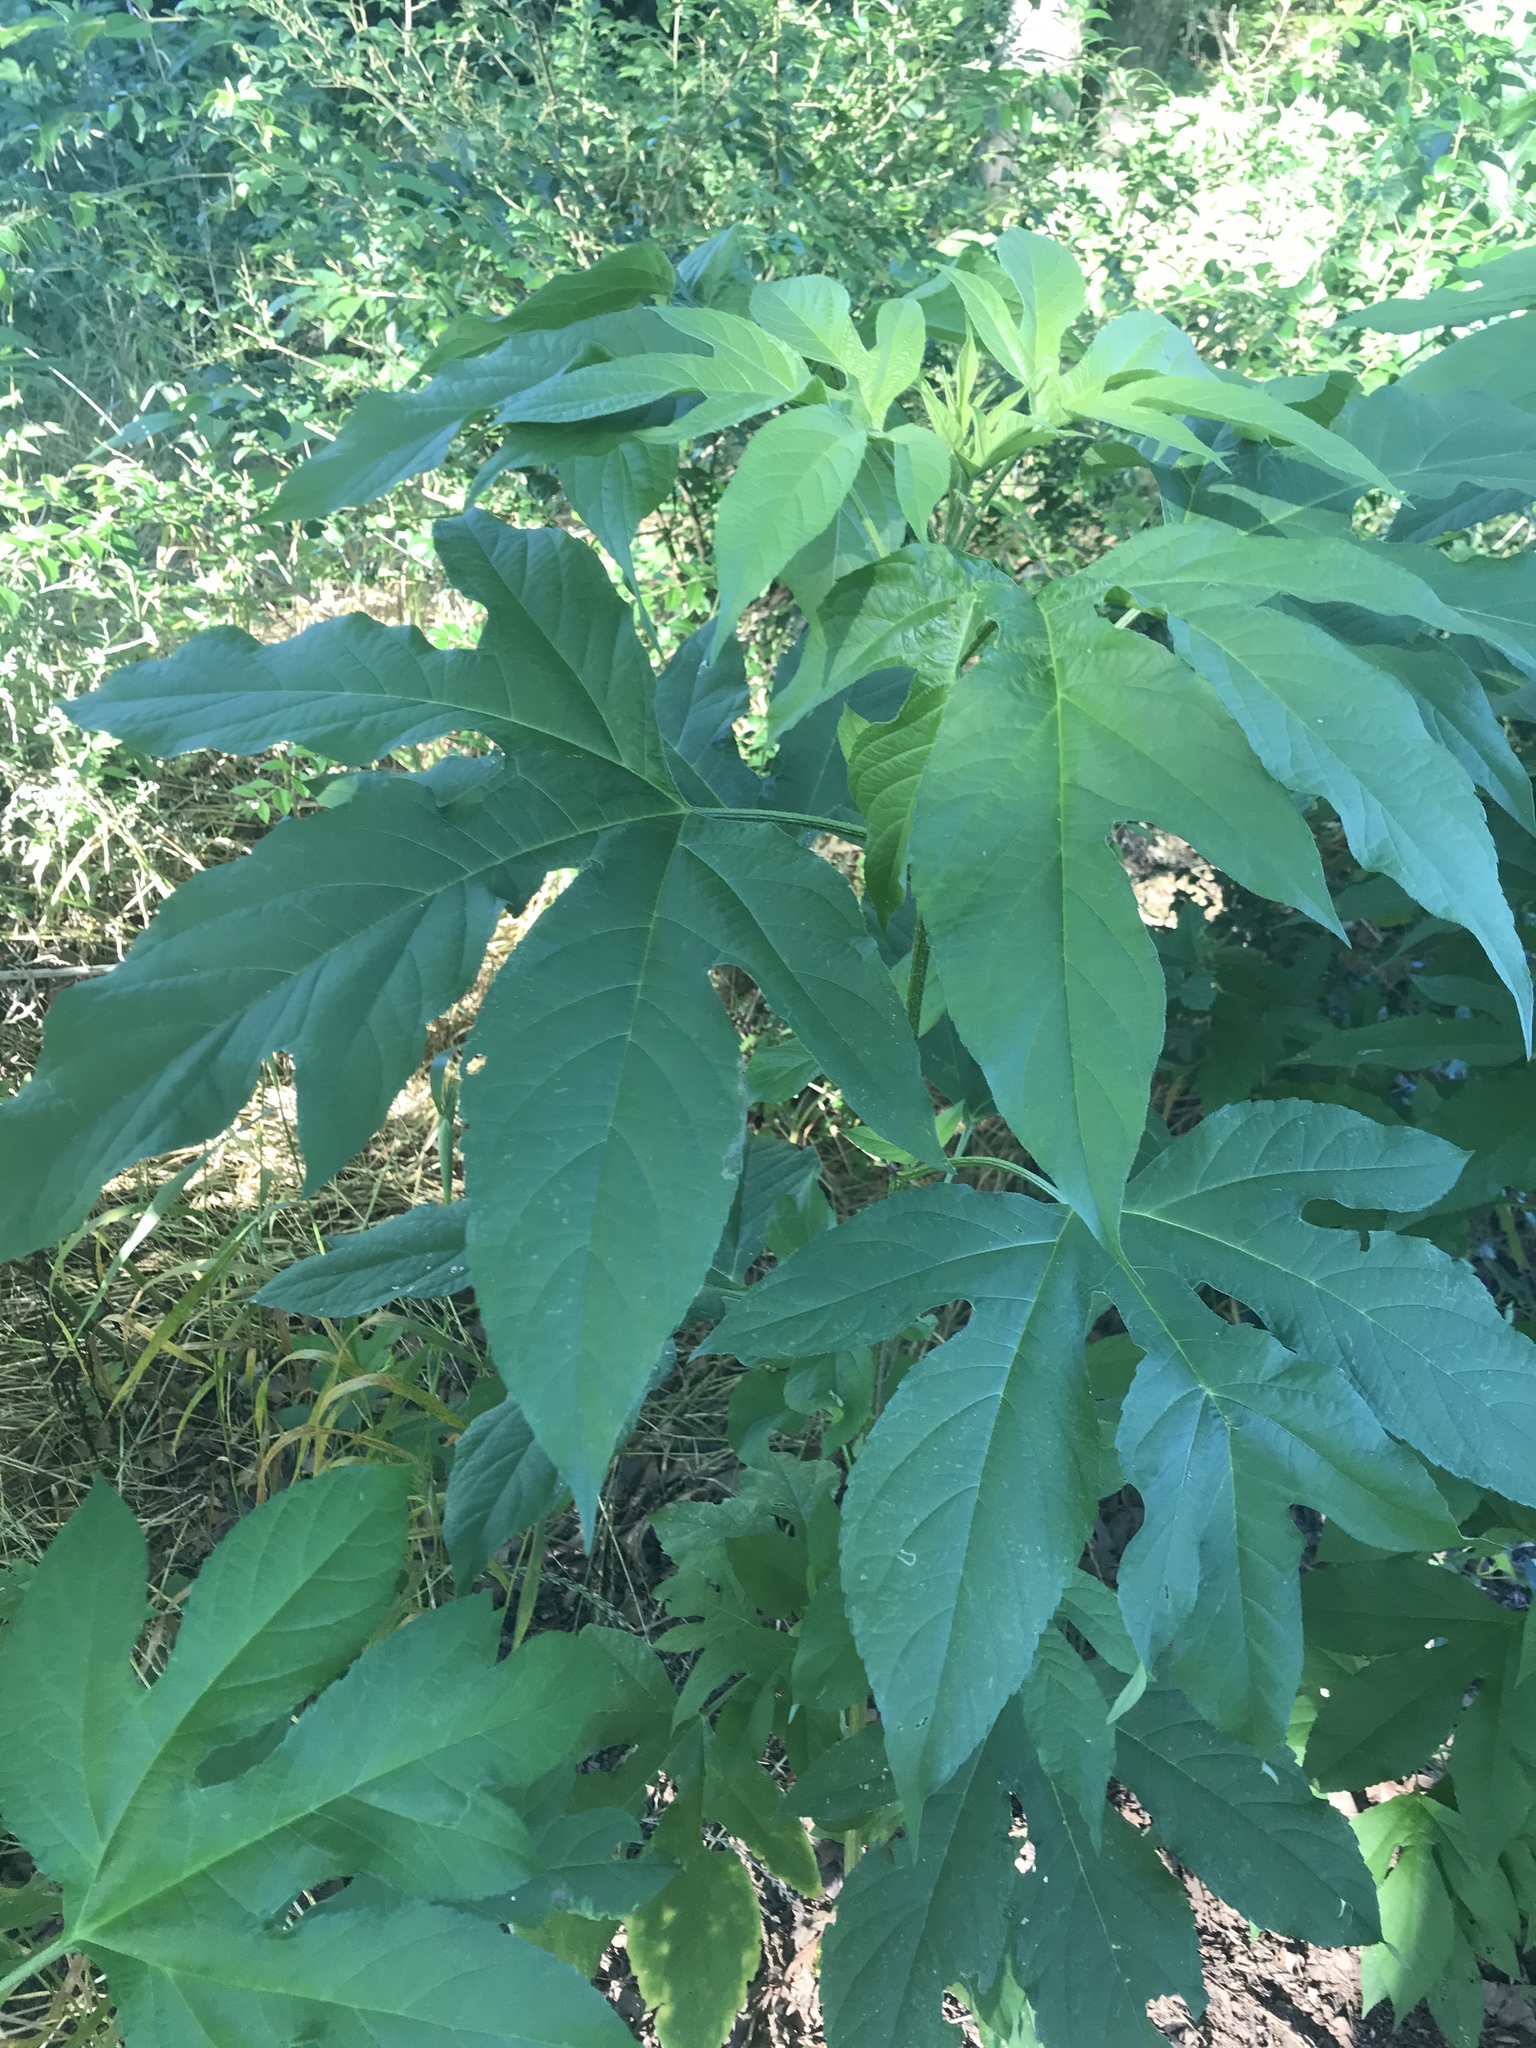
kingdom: Plantae
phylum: Tracheophyta
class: Magnoliopsida
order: Asterales
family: Asteraceae
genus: Ambrosia
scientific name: Ambrosia trifida
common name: Giant ragweed
